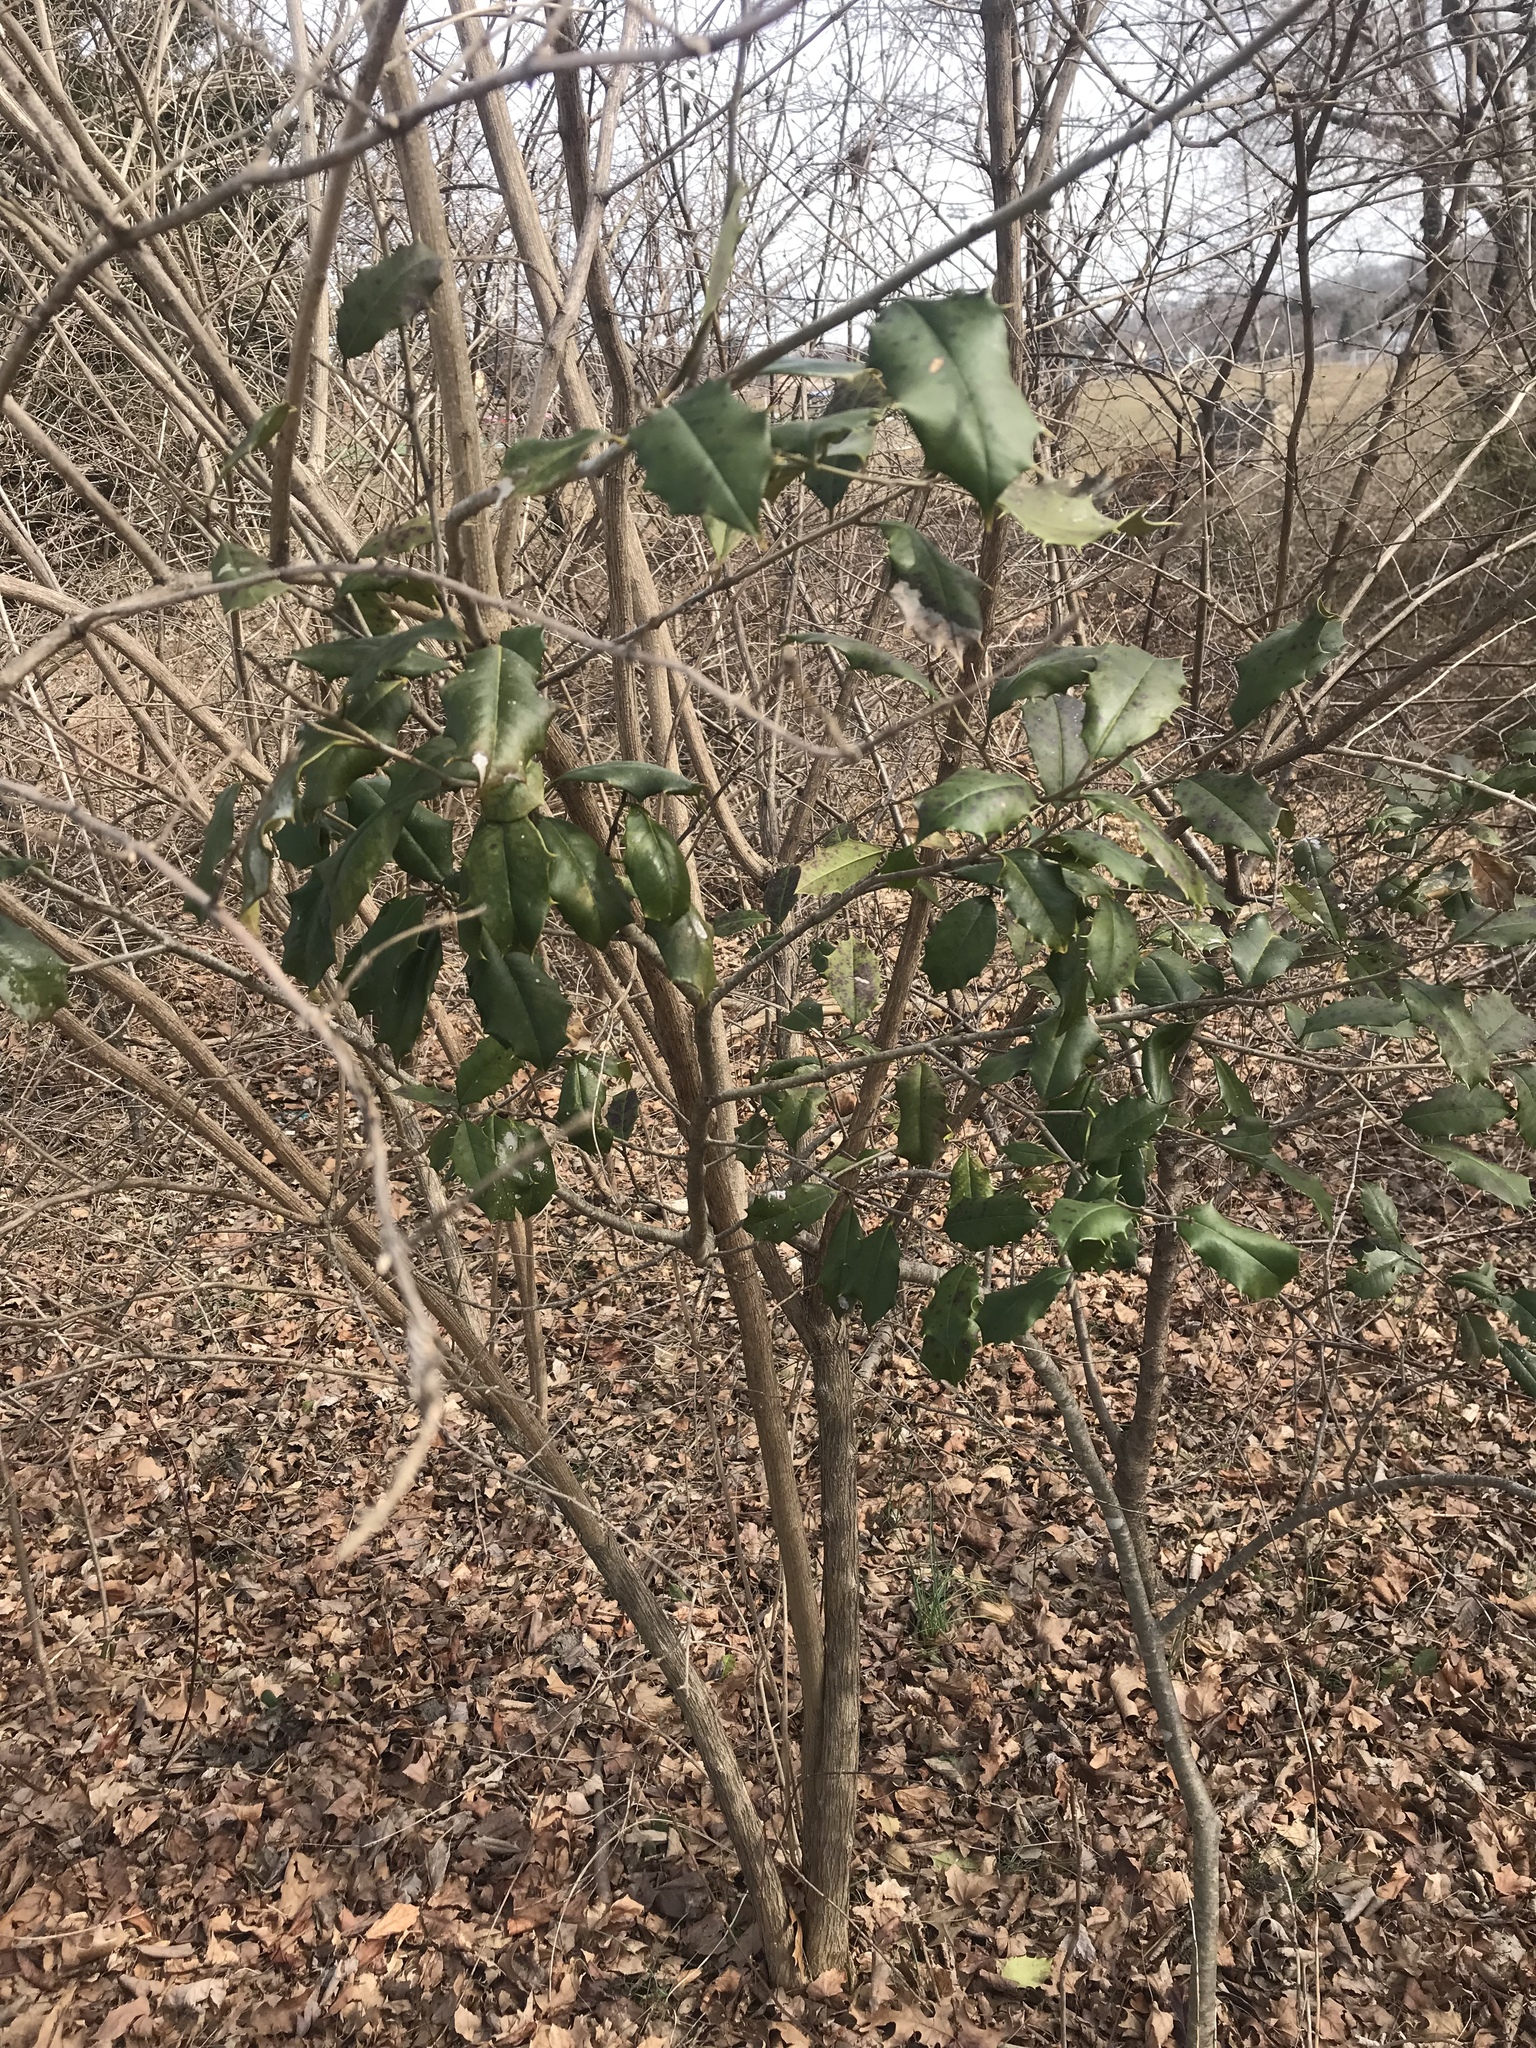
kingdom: Plantae
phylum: Tracheophyta
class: Magnoliopsida
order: Aquifoliales
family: Aquifoliaceae
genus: Ilex
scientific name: Ilex opaca
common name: American holly
